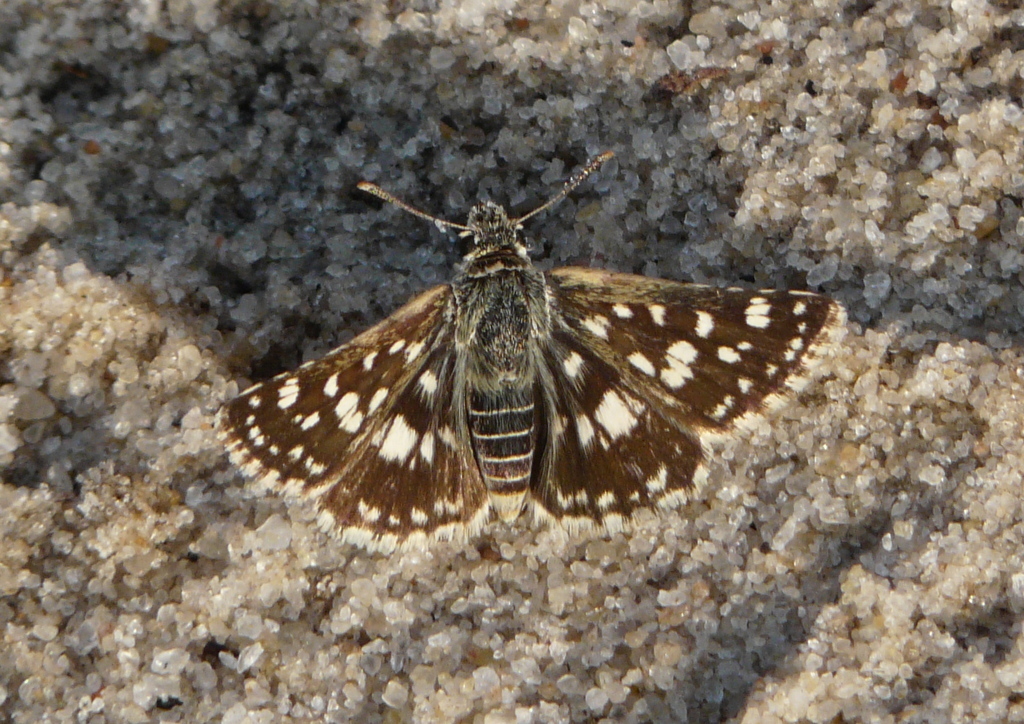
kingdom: Animalia
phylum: Arthropoda
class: Insecta
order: Lepidoptera
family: Hesperiidae
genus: Spialia
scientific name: Spialia diomus
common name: Common sandman
